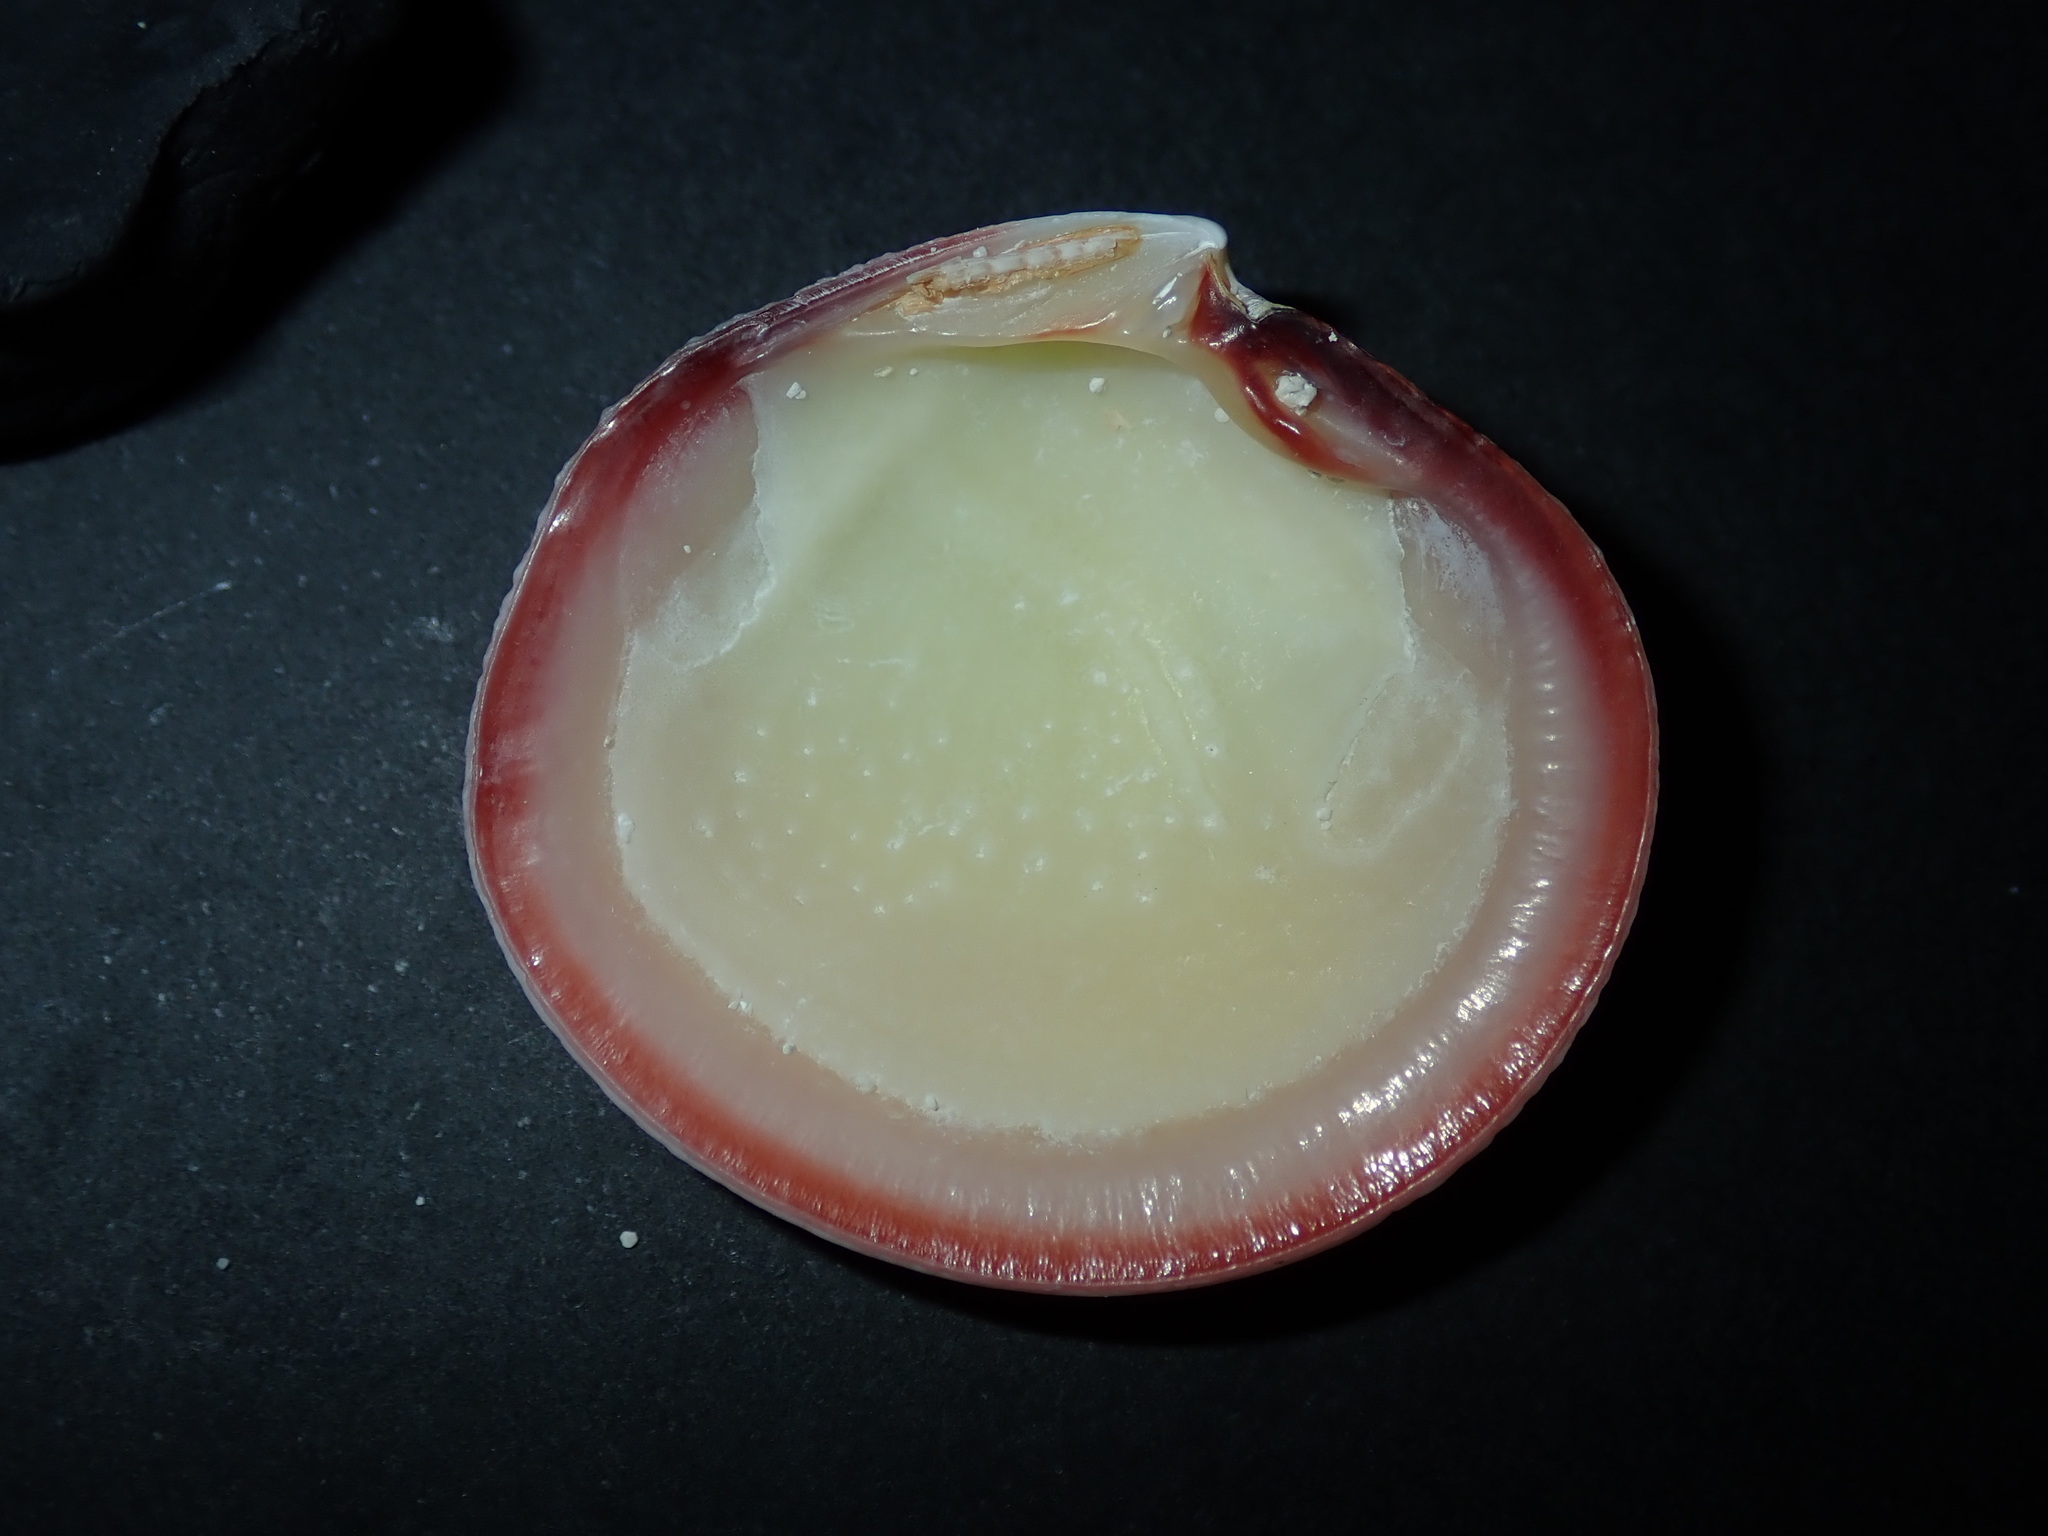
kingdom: Animalia
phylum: Mollusca
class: Bivalvia
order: Lucinida
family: Lucinidae
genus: Codakia
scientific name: Codakia paytenorum
